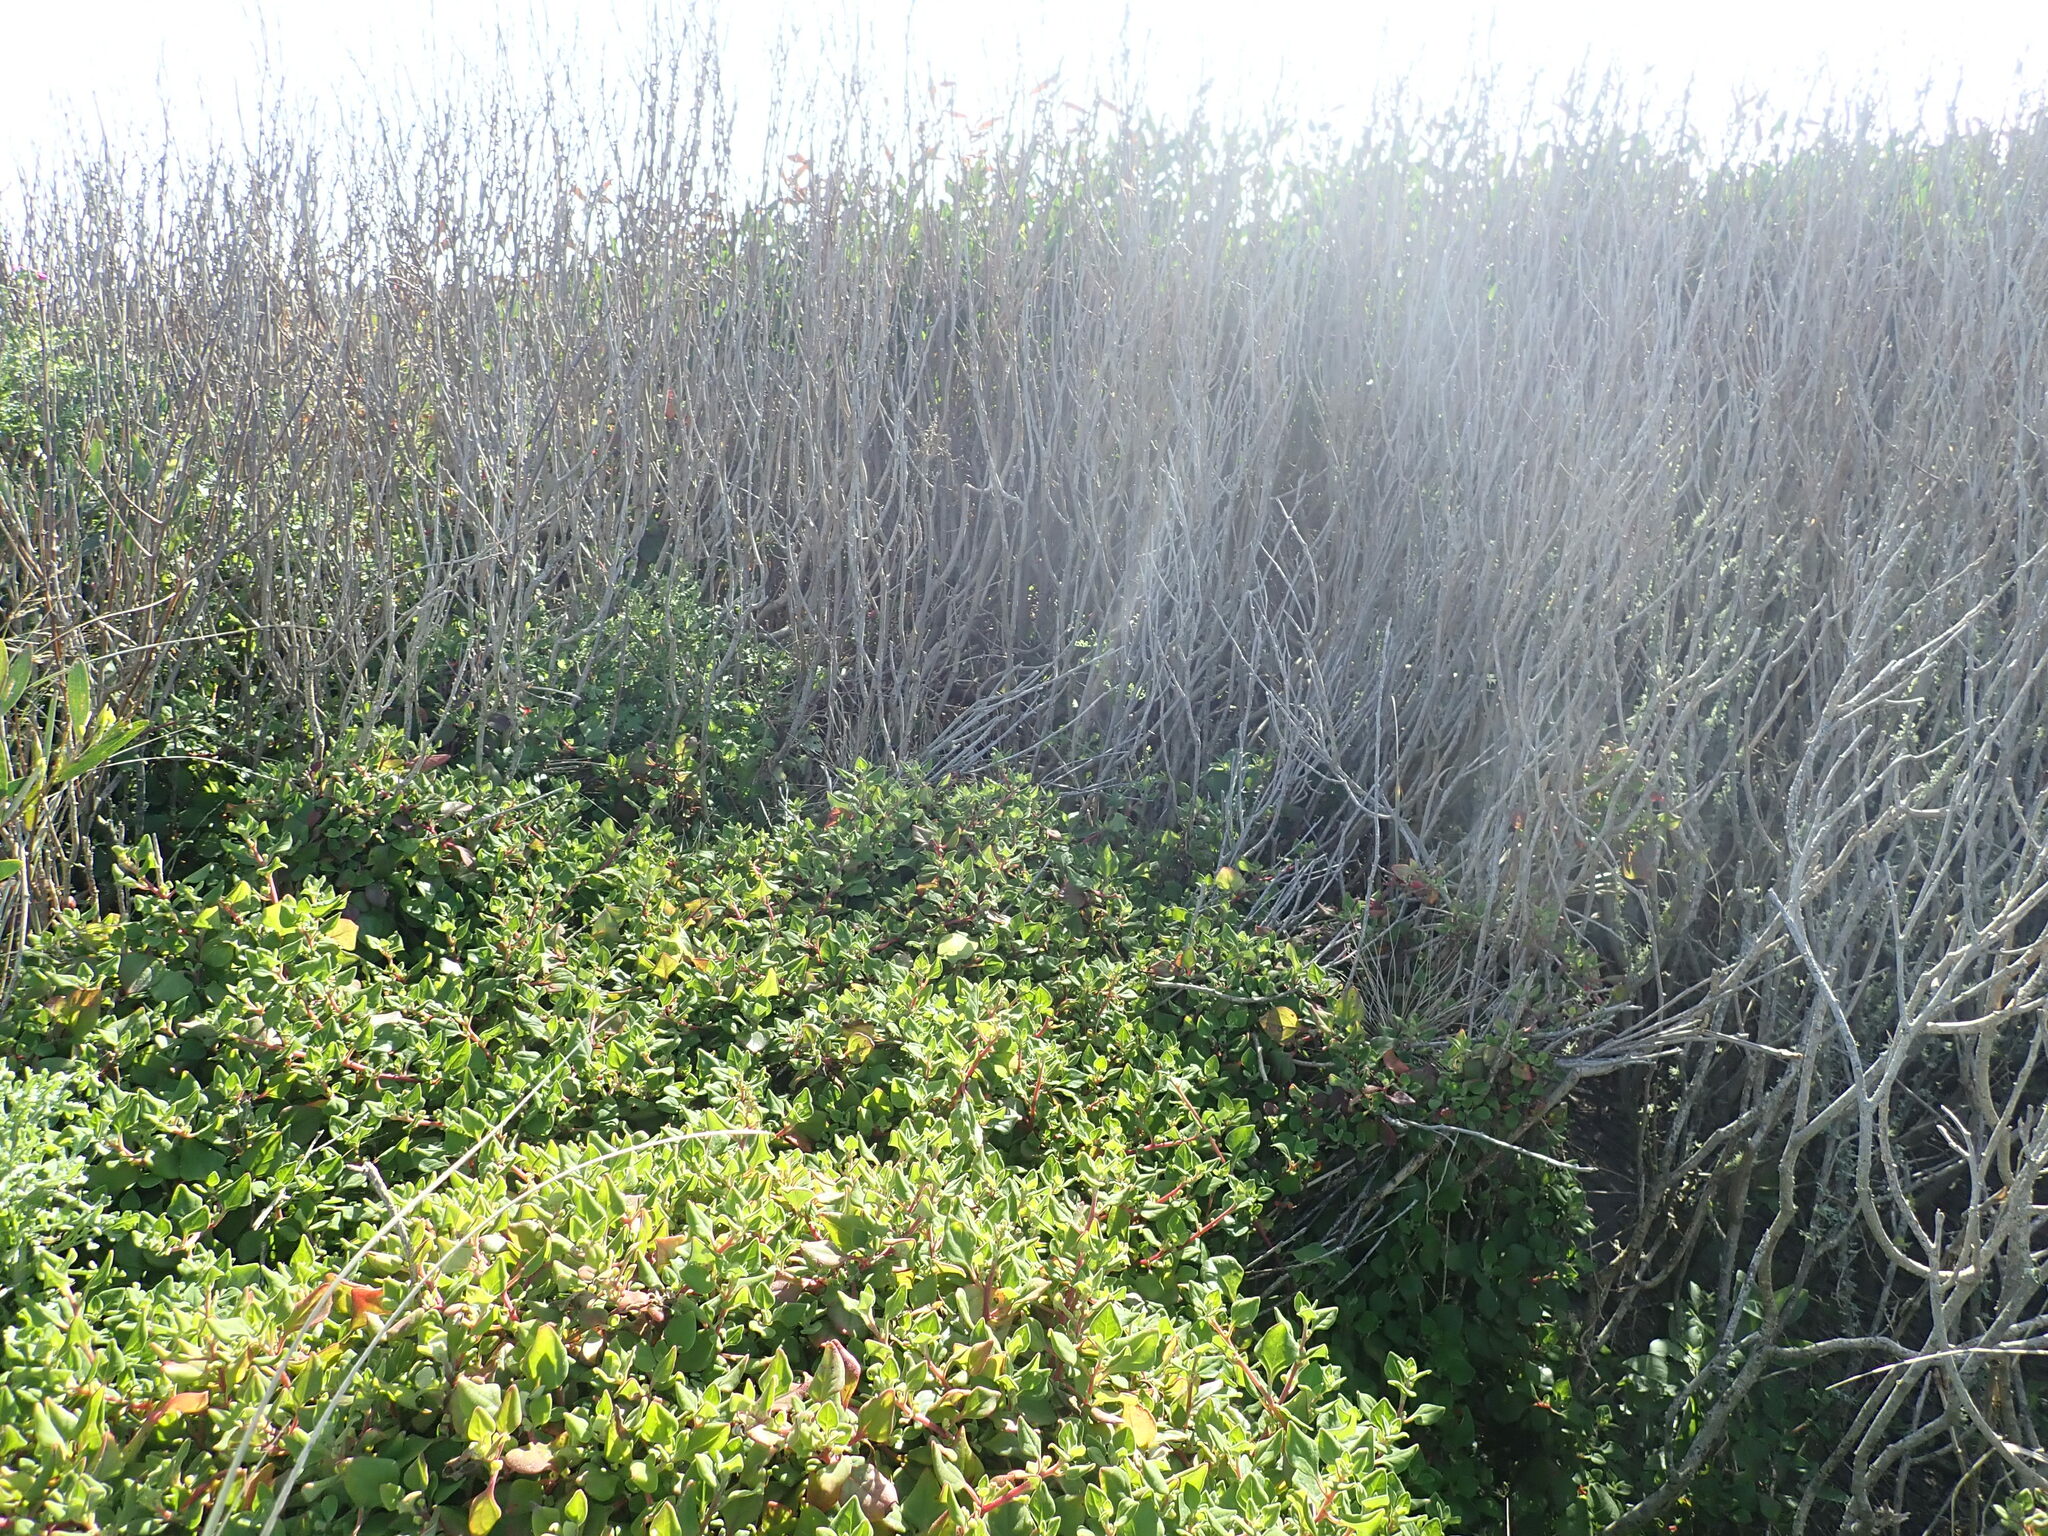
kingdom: Plantae
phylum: Tracheophyta
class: Magnoliopsida
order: Caryophyllales
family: Aizoaceae
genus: Tetragonia
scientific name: Tetragonia implexicoma
